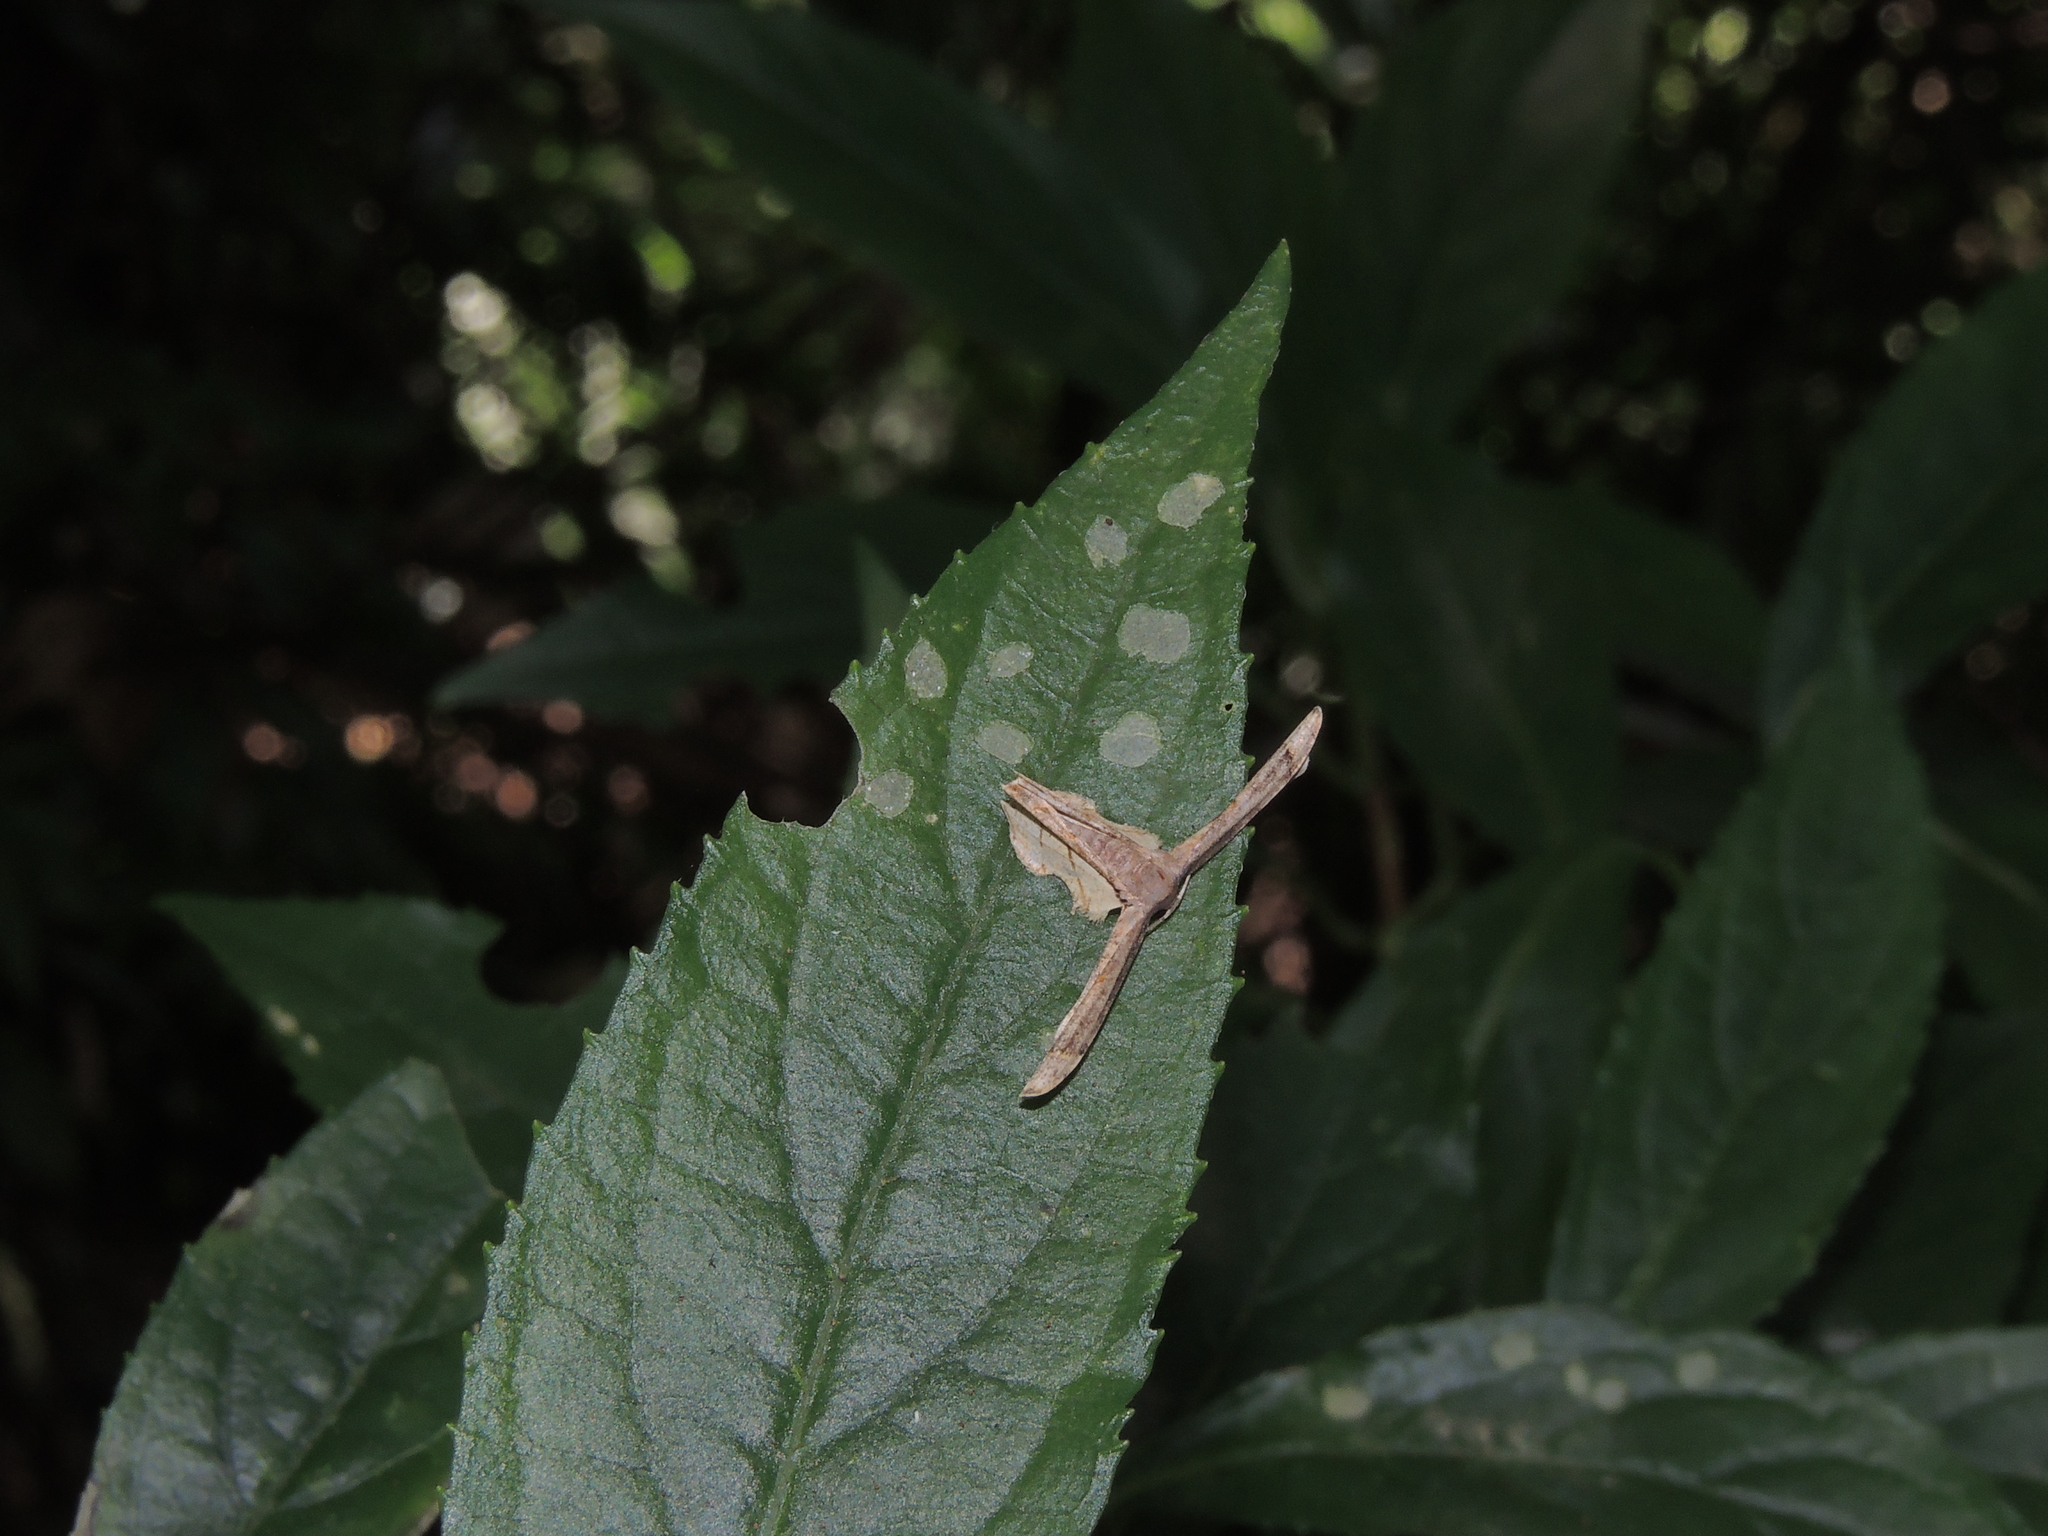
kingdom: Animalia
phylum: Arthropoda
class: Insecta
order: Lepidoptera
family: Uraniidae
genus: Warreniplema
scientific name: Warreniplema fumicosta
